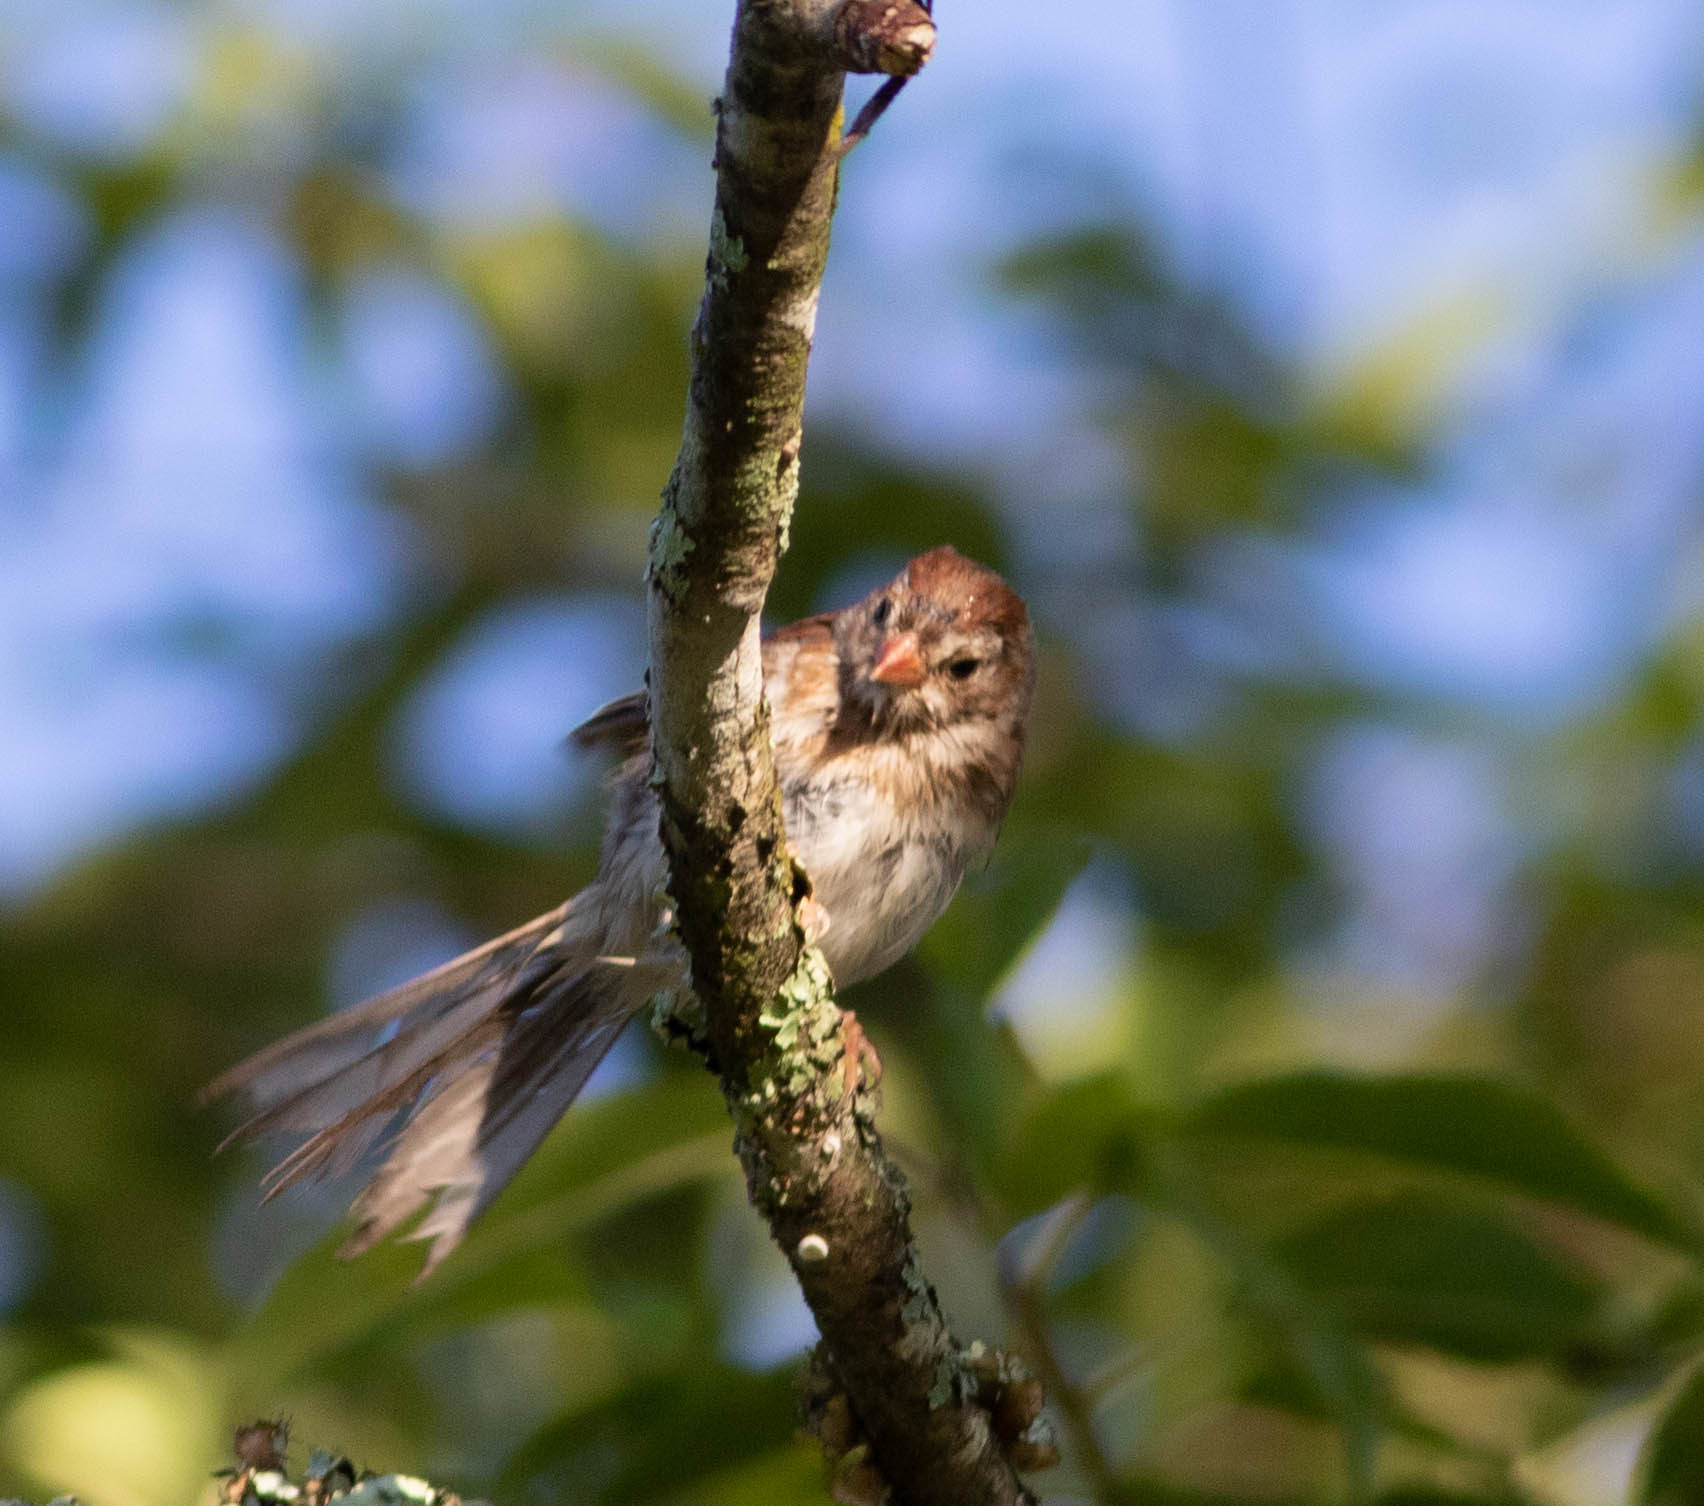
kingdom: Animalia
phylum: Chordata
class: Aves
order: Passeriformes
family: Passerellidae
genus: Spizella
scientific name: Spizella pusilla
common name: Field sparrow
